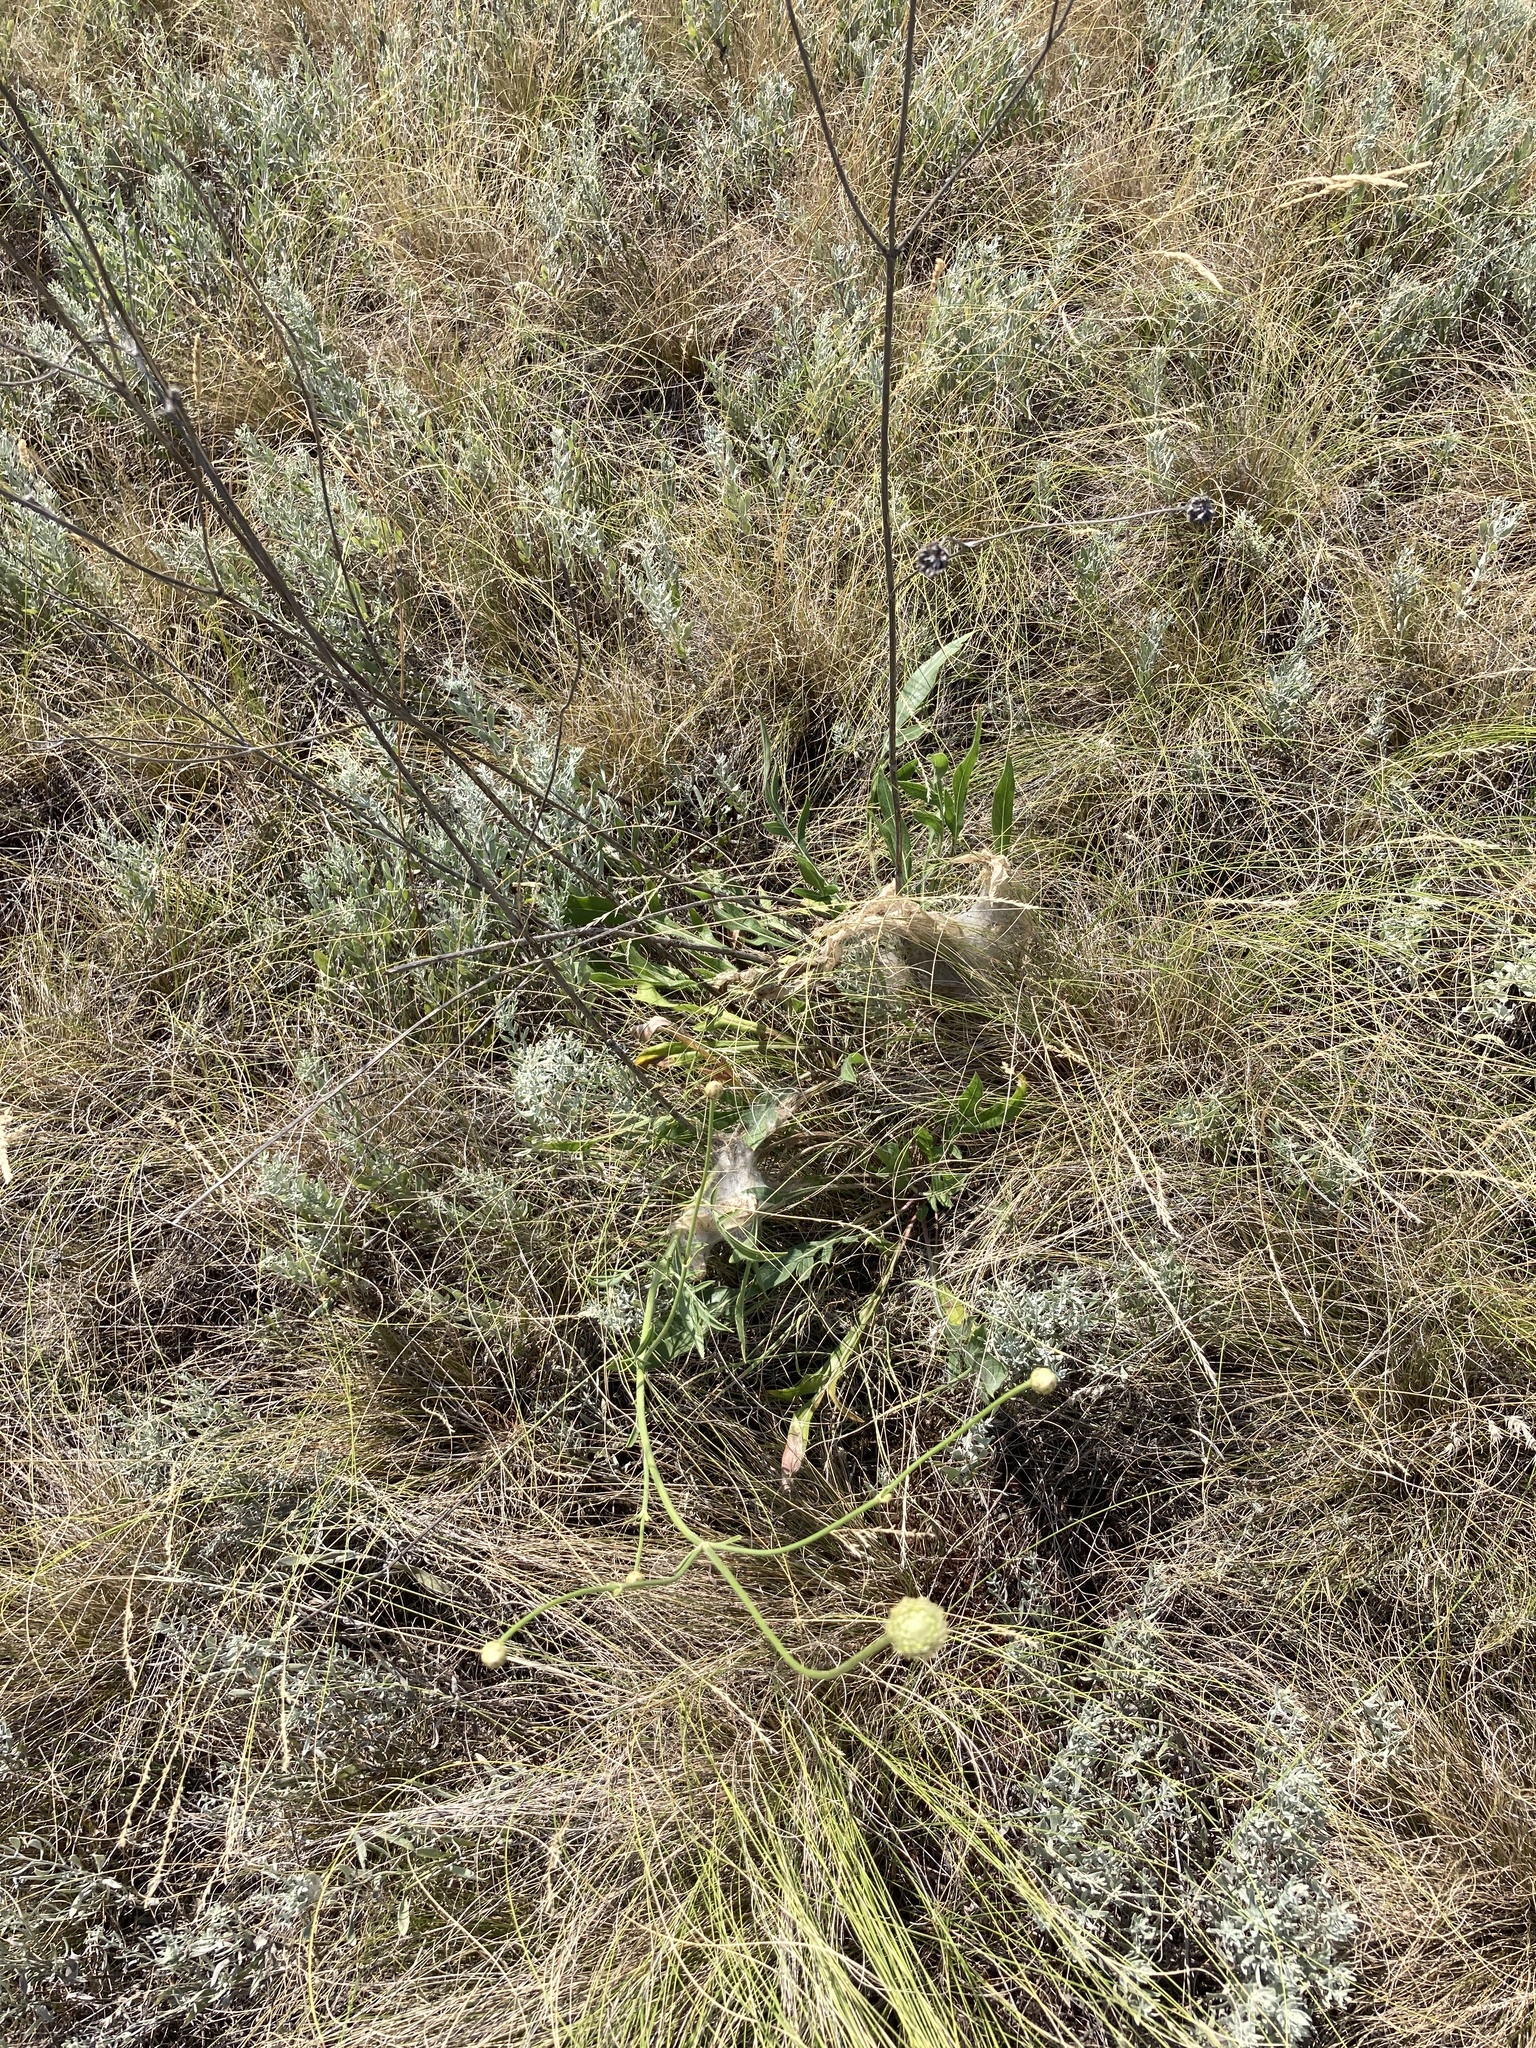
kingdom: Plantae
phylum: Tracheophyta
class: Magnoliopsida
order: Dipsacales
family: Caprifoliaceae
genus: Cephalaria
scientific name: Cephalaria uralensis
